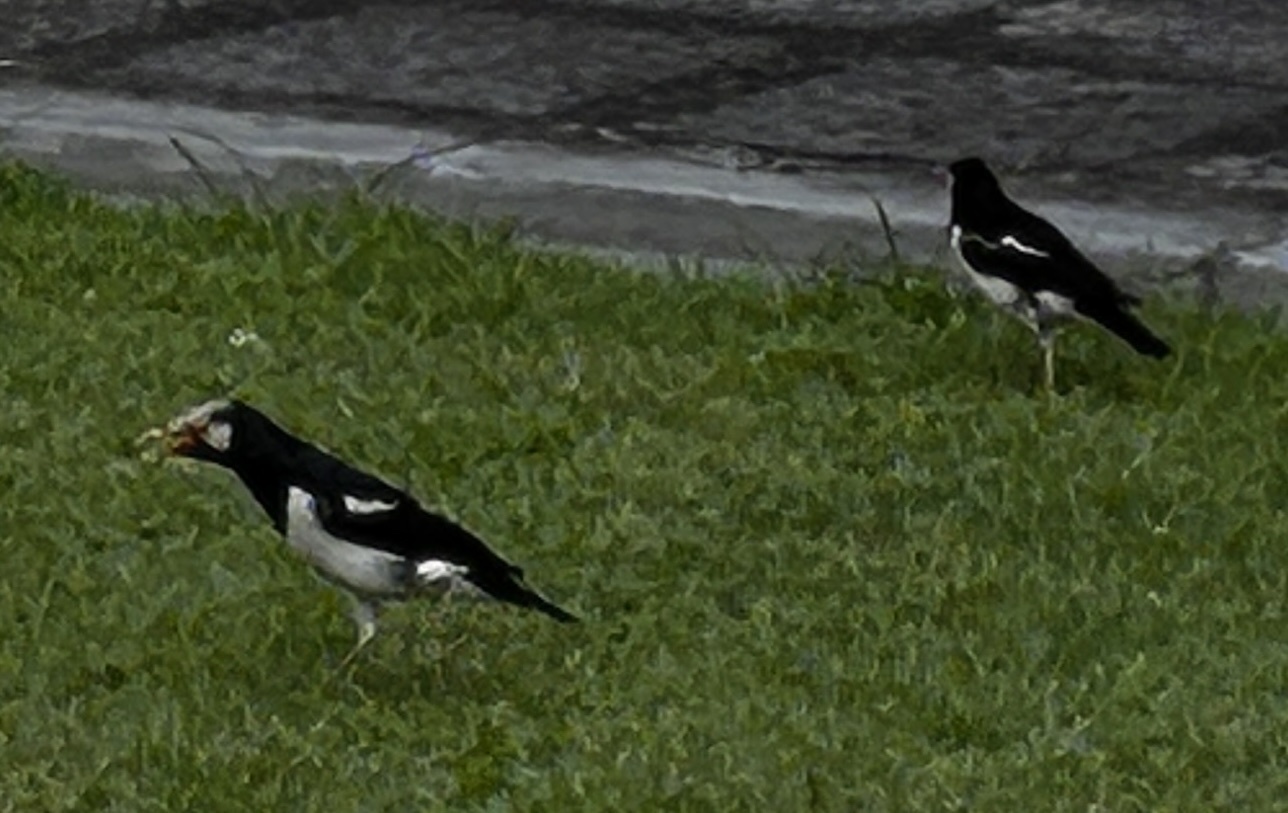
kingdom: Animalia
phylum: Chordata
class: Aves
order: Passeriformes
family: Sturnidae
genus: Gracupica
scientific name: Gracupica contra
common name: Pied myna
